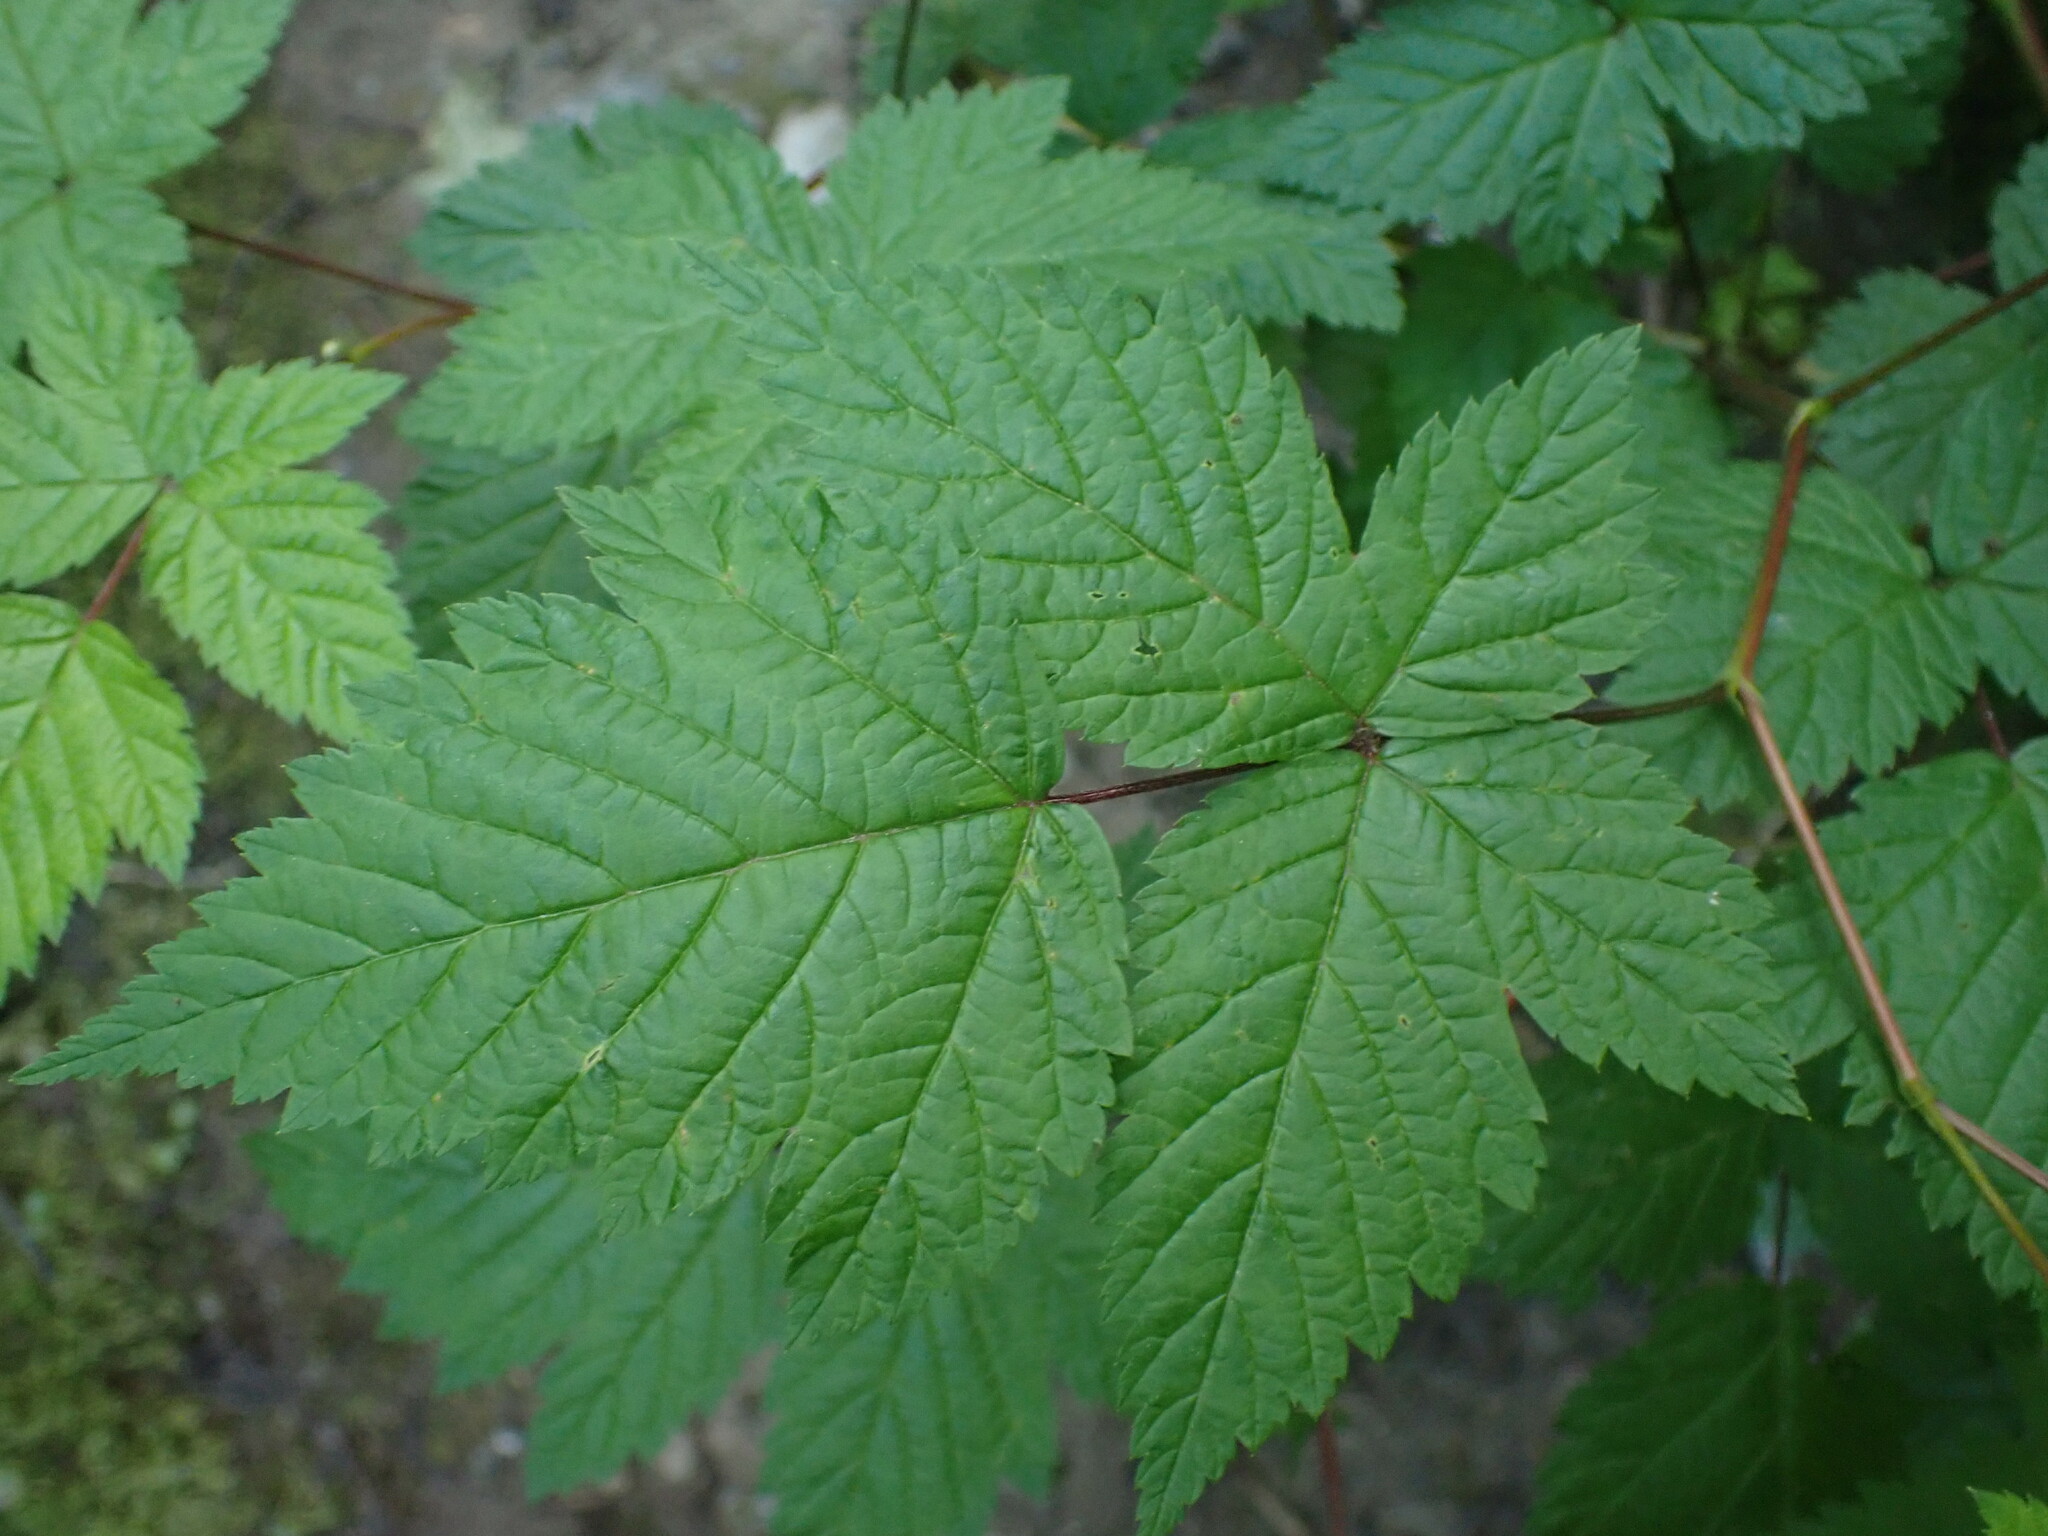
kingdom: Plantae
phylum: Tracheophyta
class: Magnoliopsida
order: Rosales
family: Rosaceae
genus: Rubus
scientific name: Rubus spectabilis
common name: Salmonberry
